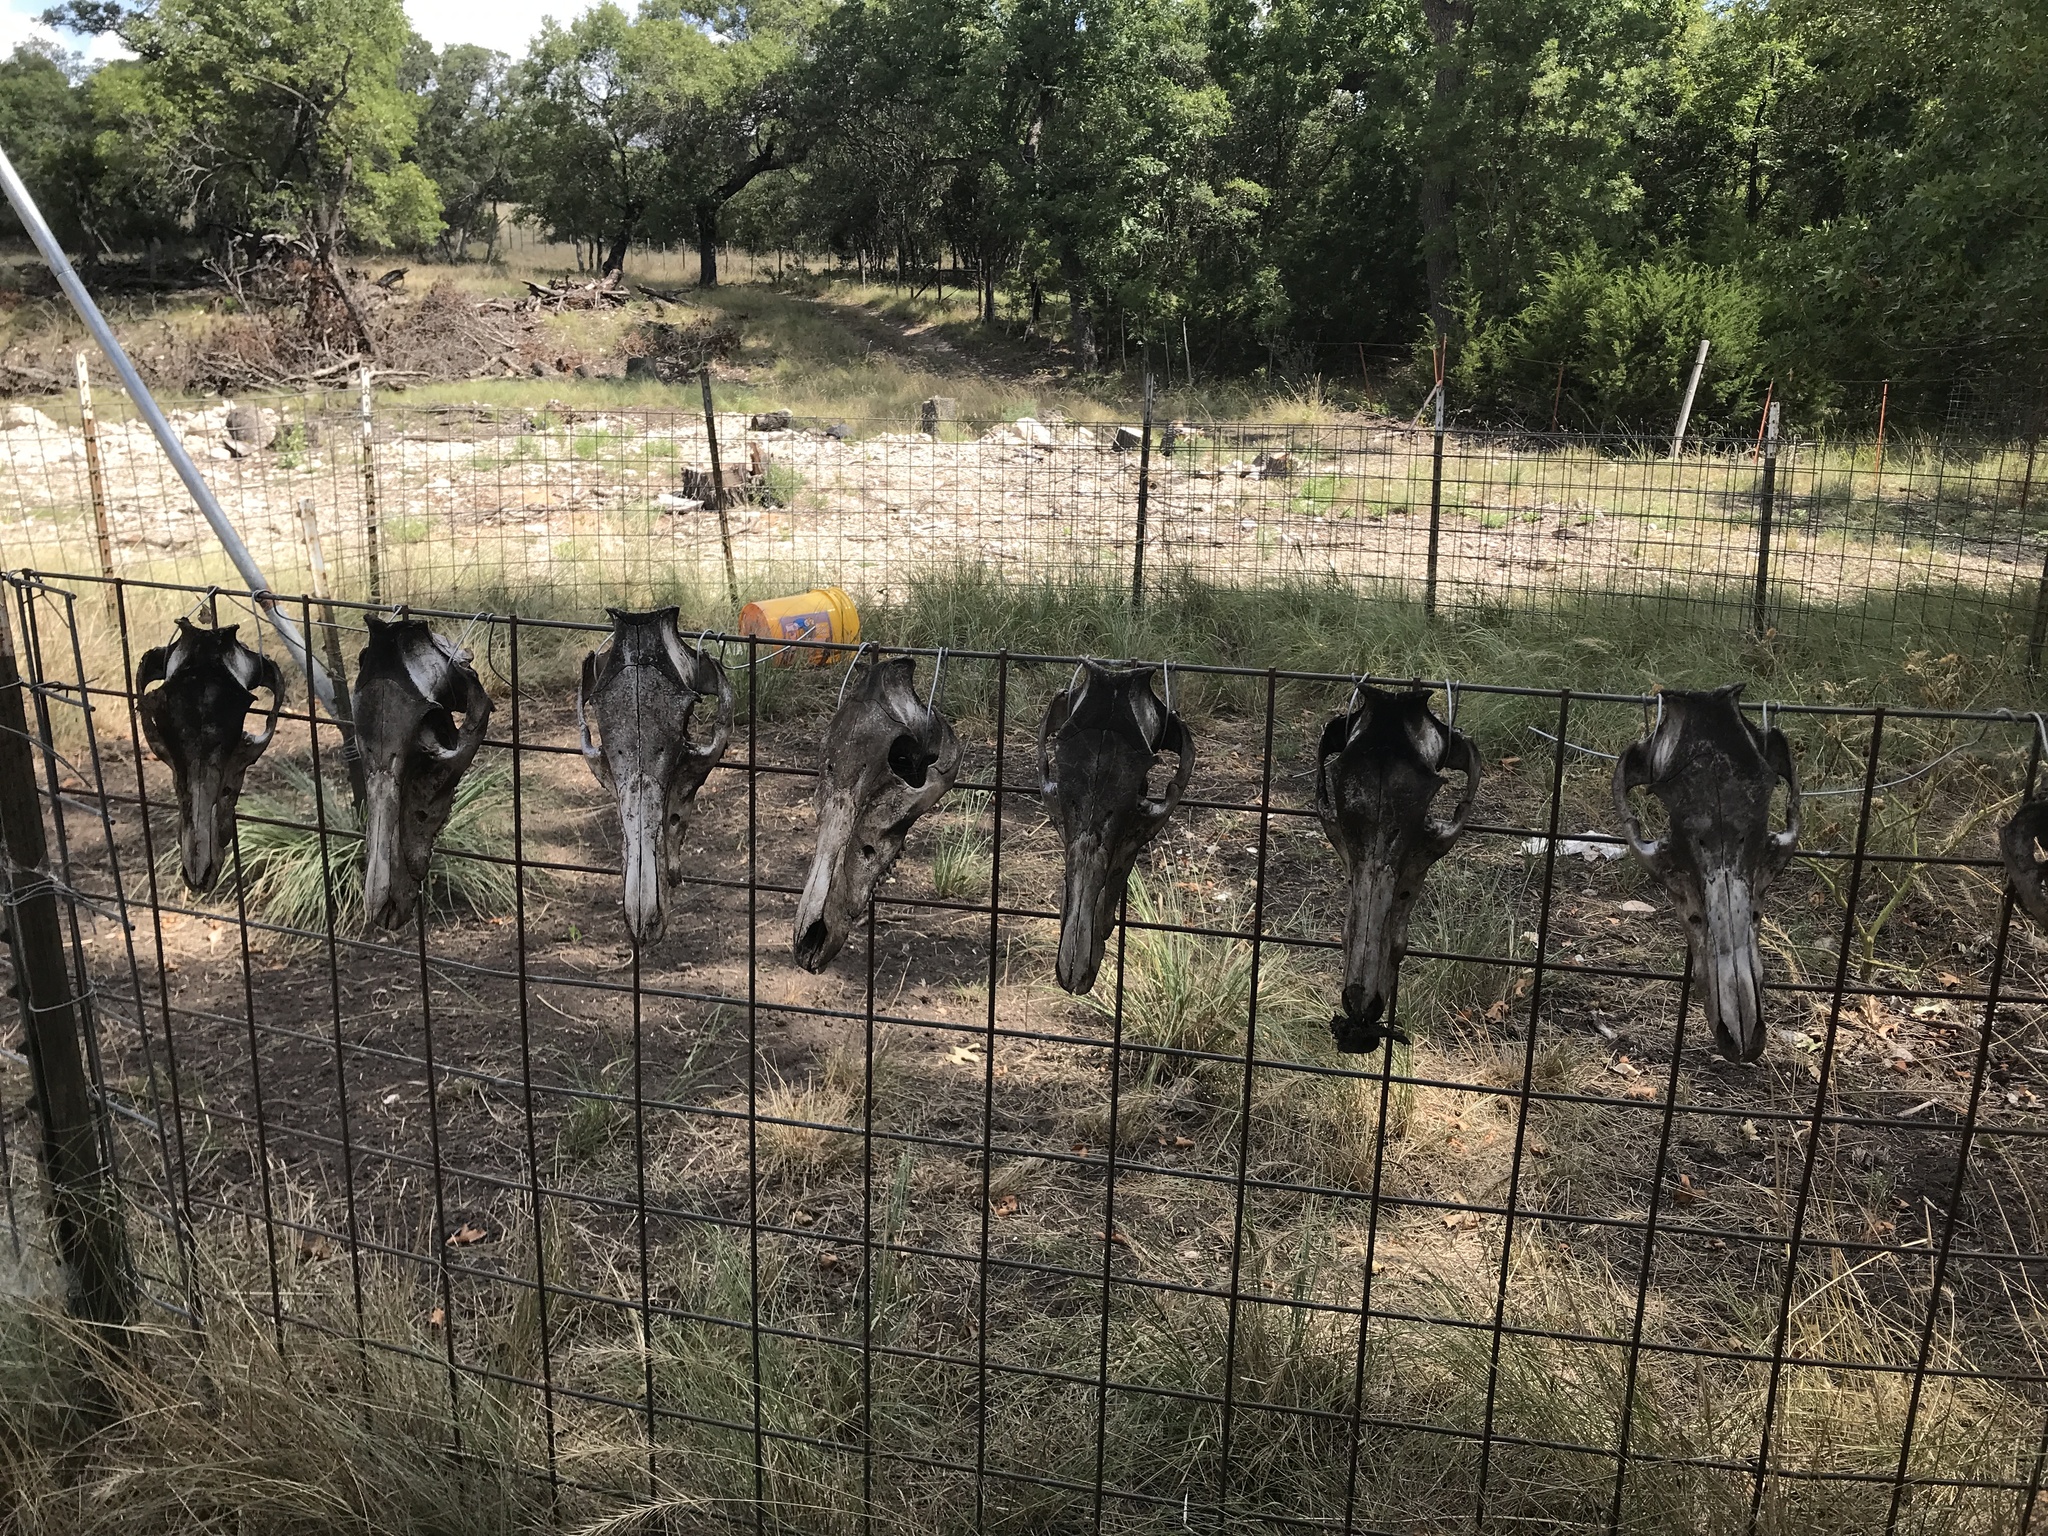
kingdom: Animalia
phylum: Chordata
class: Mammalia
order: Artiodactyla
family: Suidae
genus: Sus
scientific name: Sus scrofa
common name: Wild boar
